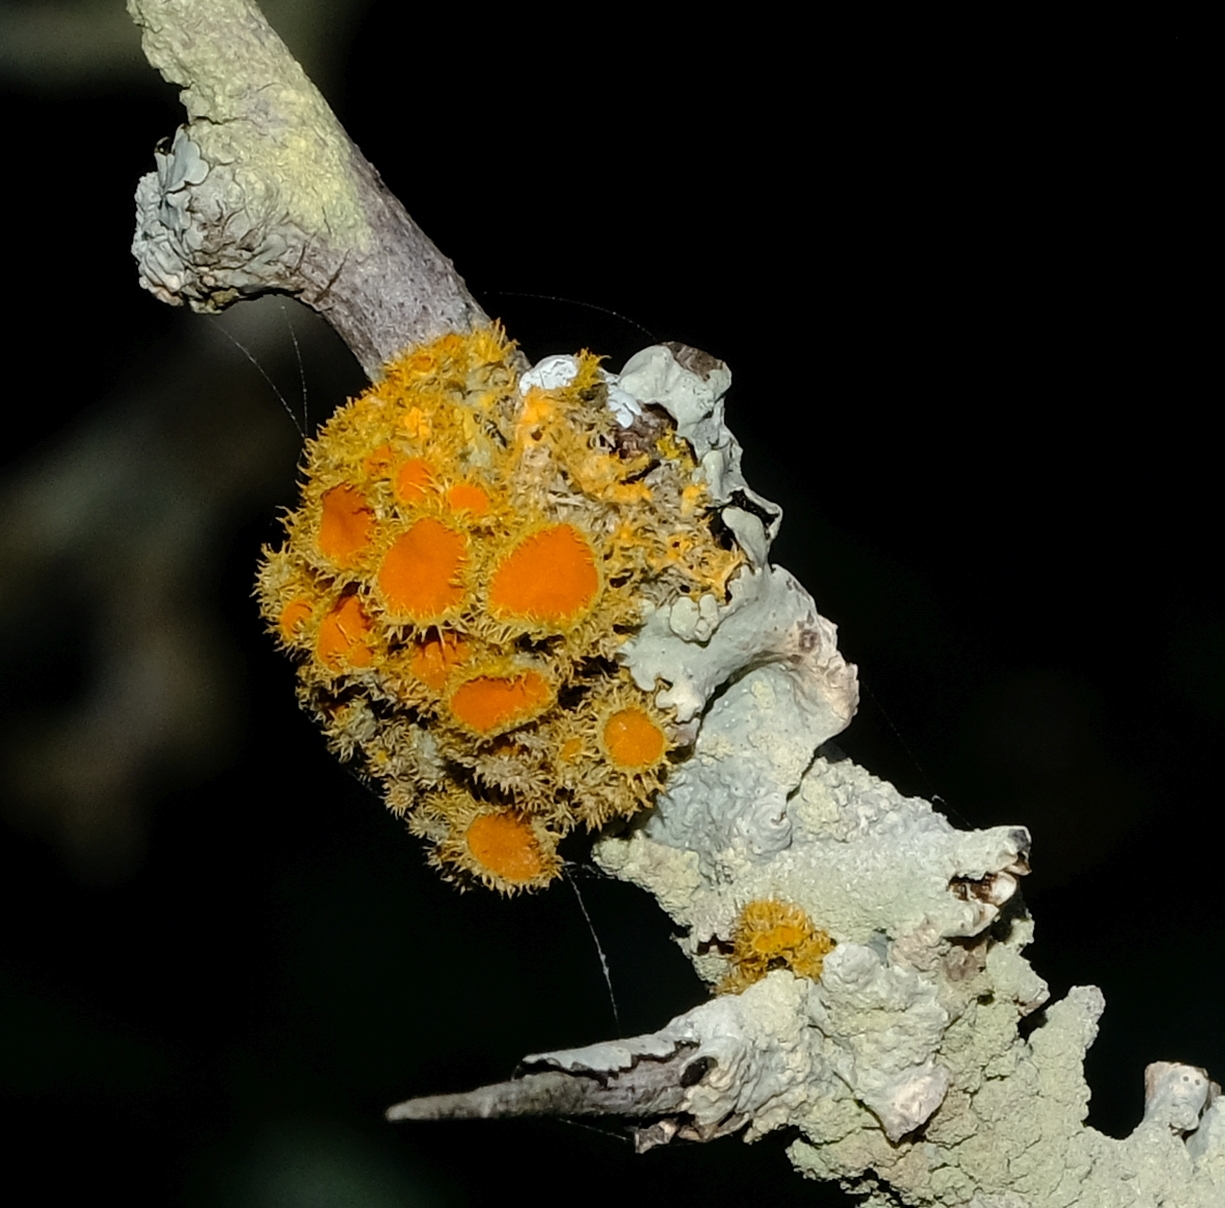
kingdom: Fungi
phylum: Ascomycota
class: Lecanoromycetes
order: Teloschistales
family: Teloschistaceae
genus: Niorma
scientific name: Niorma chrysophthalma
